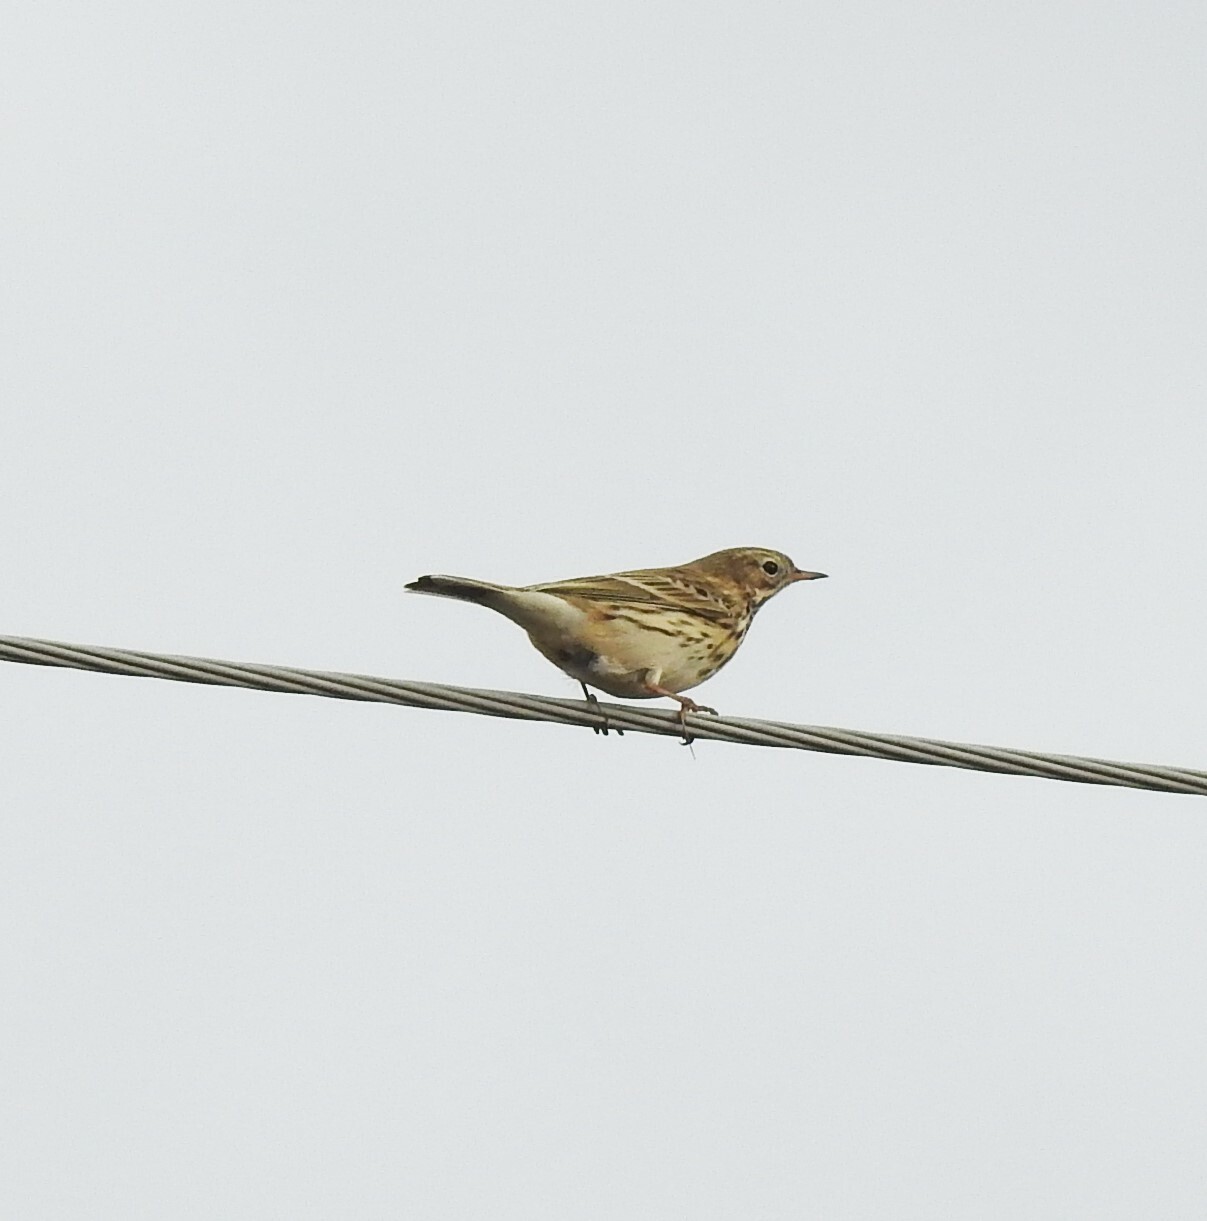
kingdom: Animalia
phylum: Chordata
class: Aves
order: Passeriformes
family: Motacillidae
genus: Anthus
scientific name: Anthus pratensis
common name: Meadow pipit
